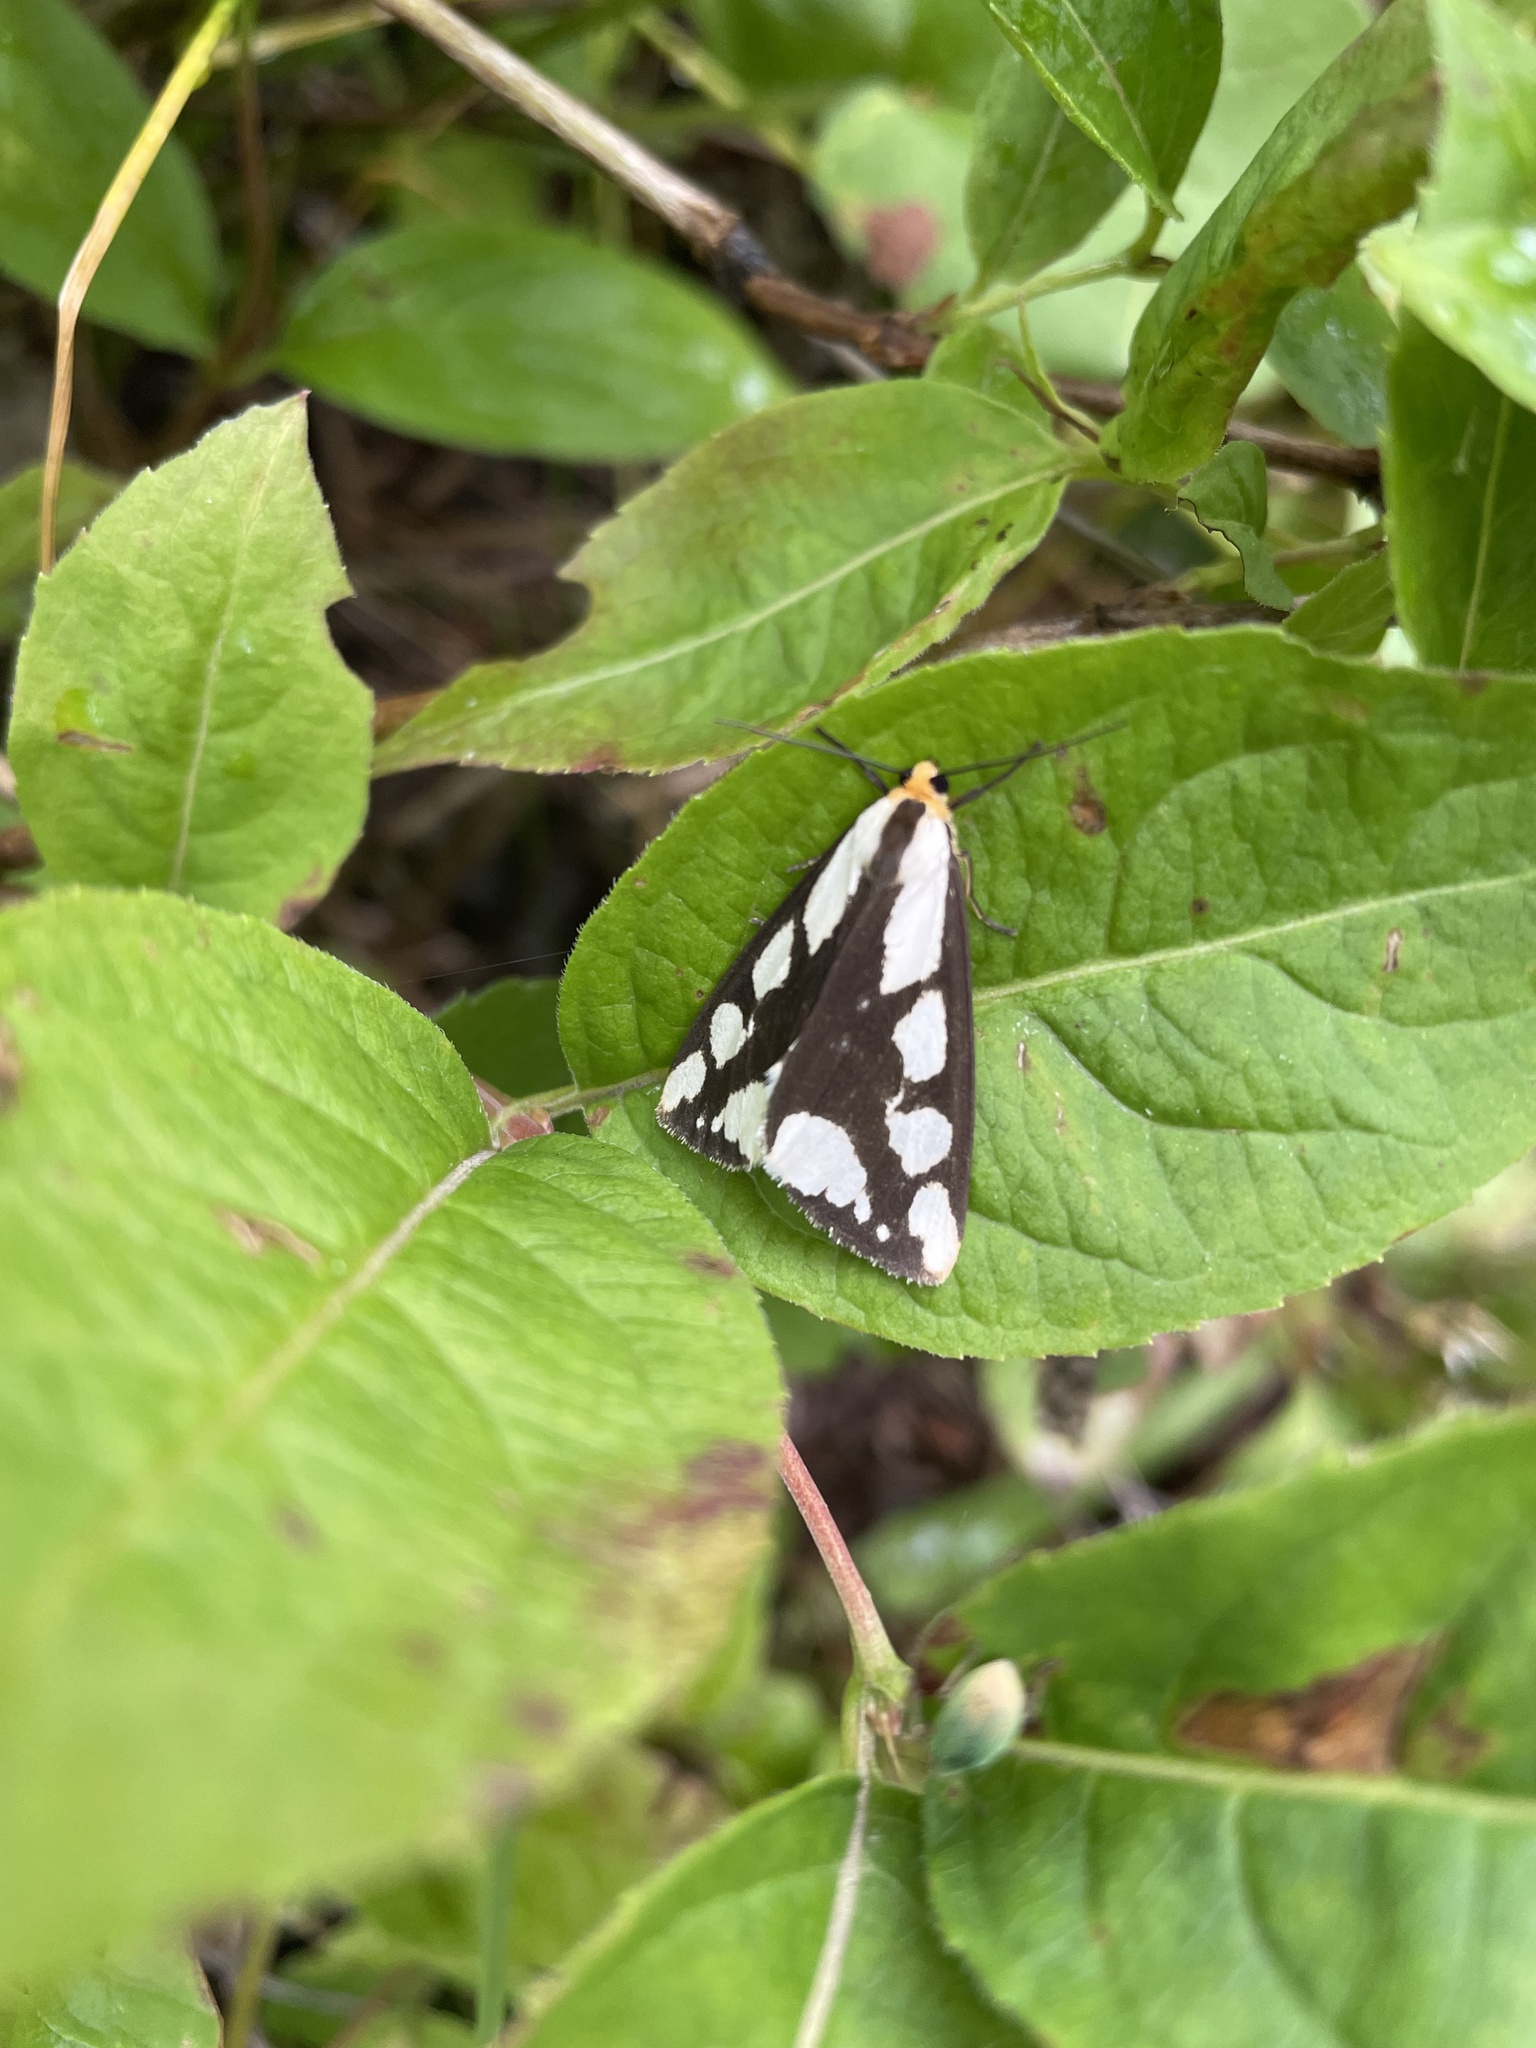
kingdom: Animalia
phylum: Arthropoda
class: Insecta
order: Lepidoptera
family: Erebidae
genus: Haploa
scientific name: Haploa confusa
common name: Confused haploa moth
